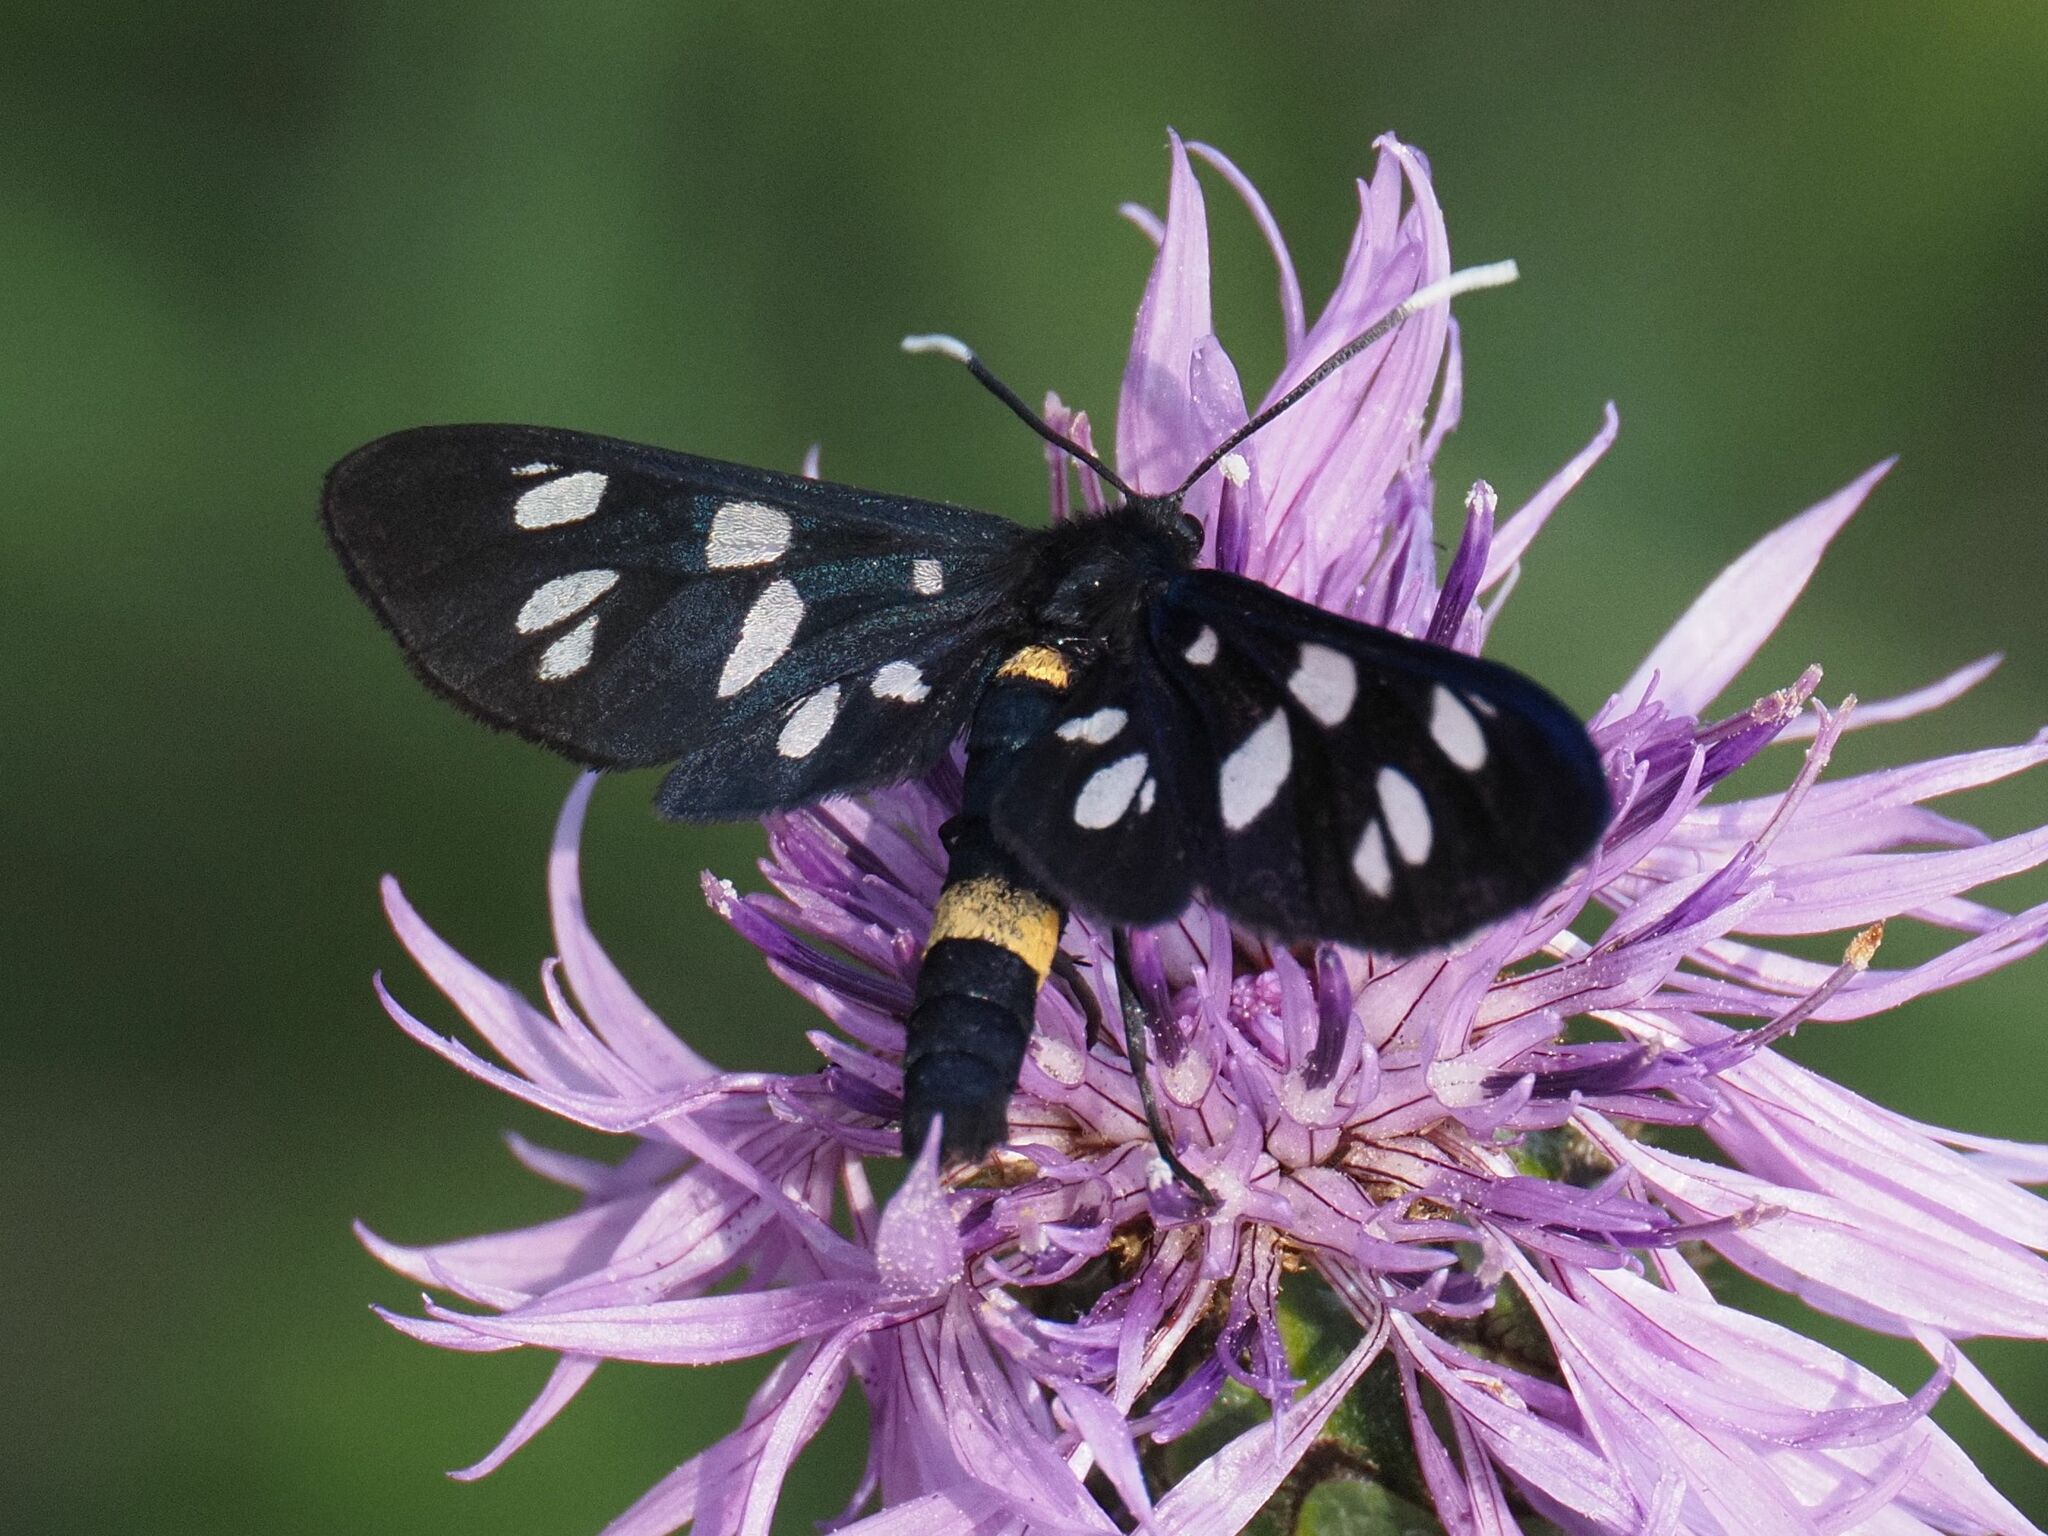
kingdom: Animalia
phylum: Arthropoda
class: Insecta
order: Lepidoptera
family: Erebidae
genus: Amata
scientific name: Amata phegea
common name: Nine-spotted
